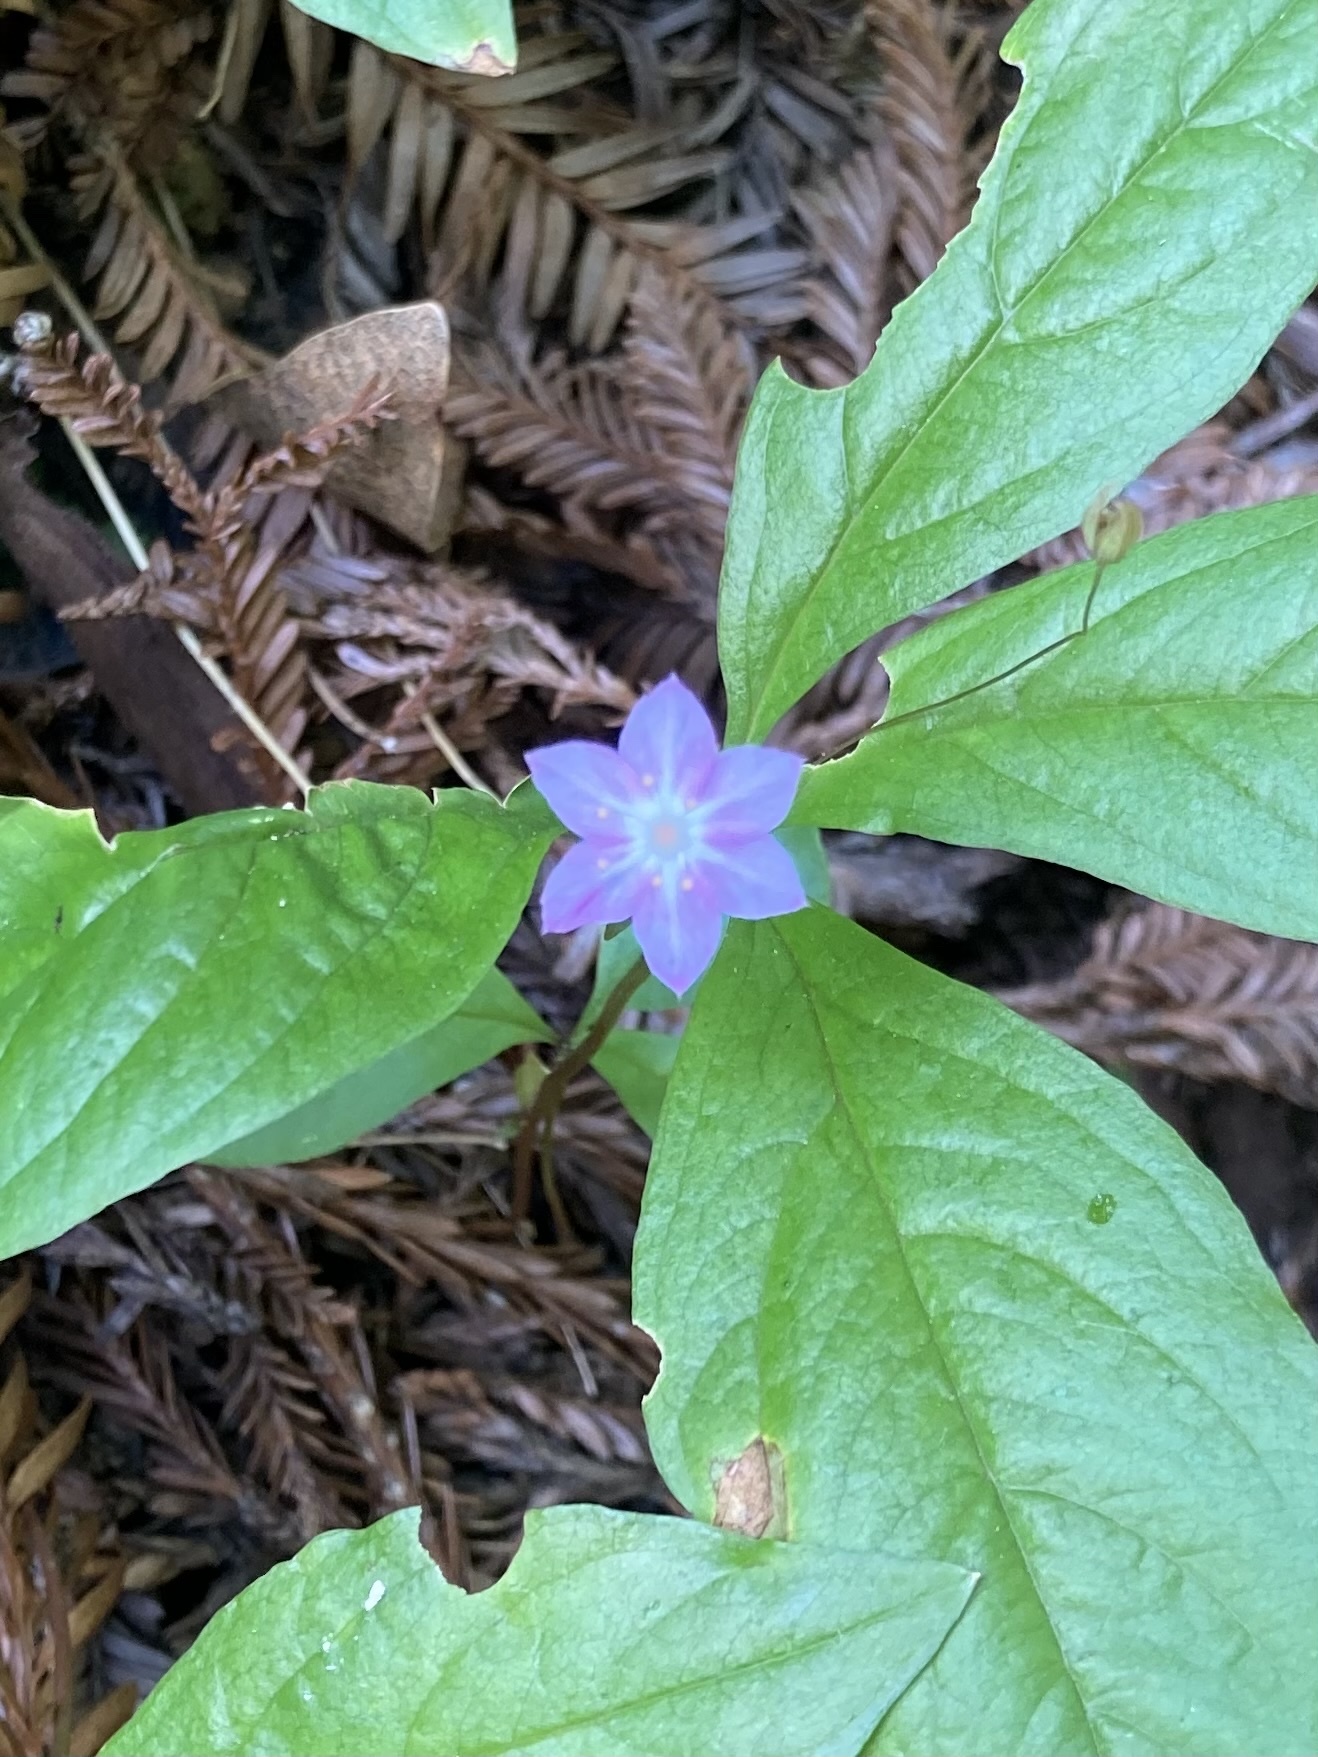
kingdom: Plantae
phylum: Tracheophyta
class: Magnoliopsida
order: Ericales
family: Primulaceae
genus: Lysimachia
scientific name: Lysimachia latifolia
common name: Pacific starflower
